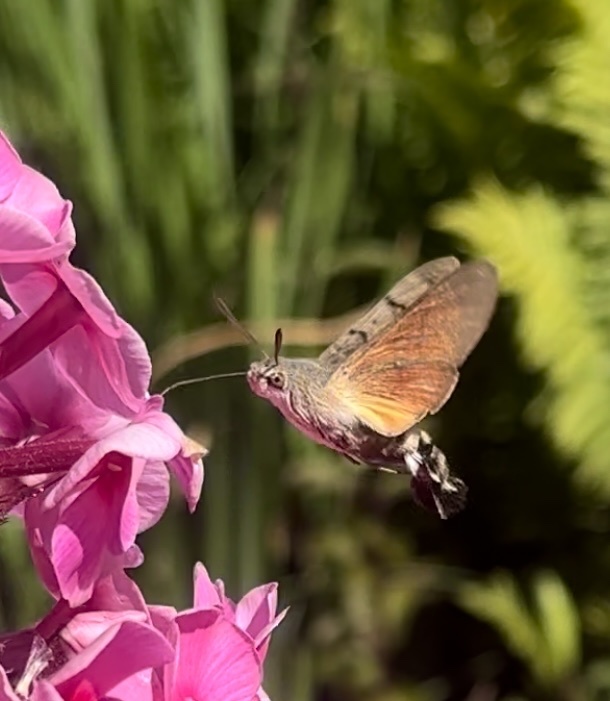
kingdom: Animalia
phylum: Arthropoda
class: Insecta
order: Lepidoptera
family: Sphingidae
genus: Macroglossum
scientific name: Macroglossum stellatarum
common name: Humming-bird hawk-moth
